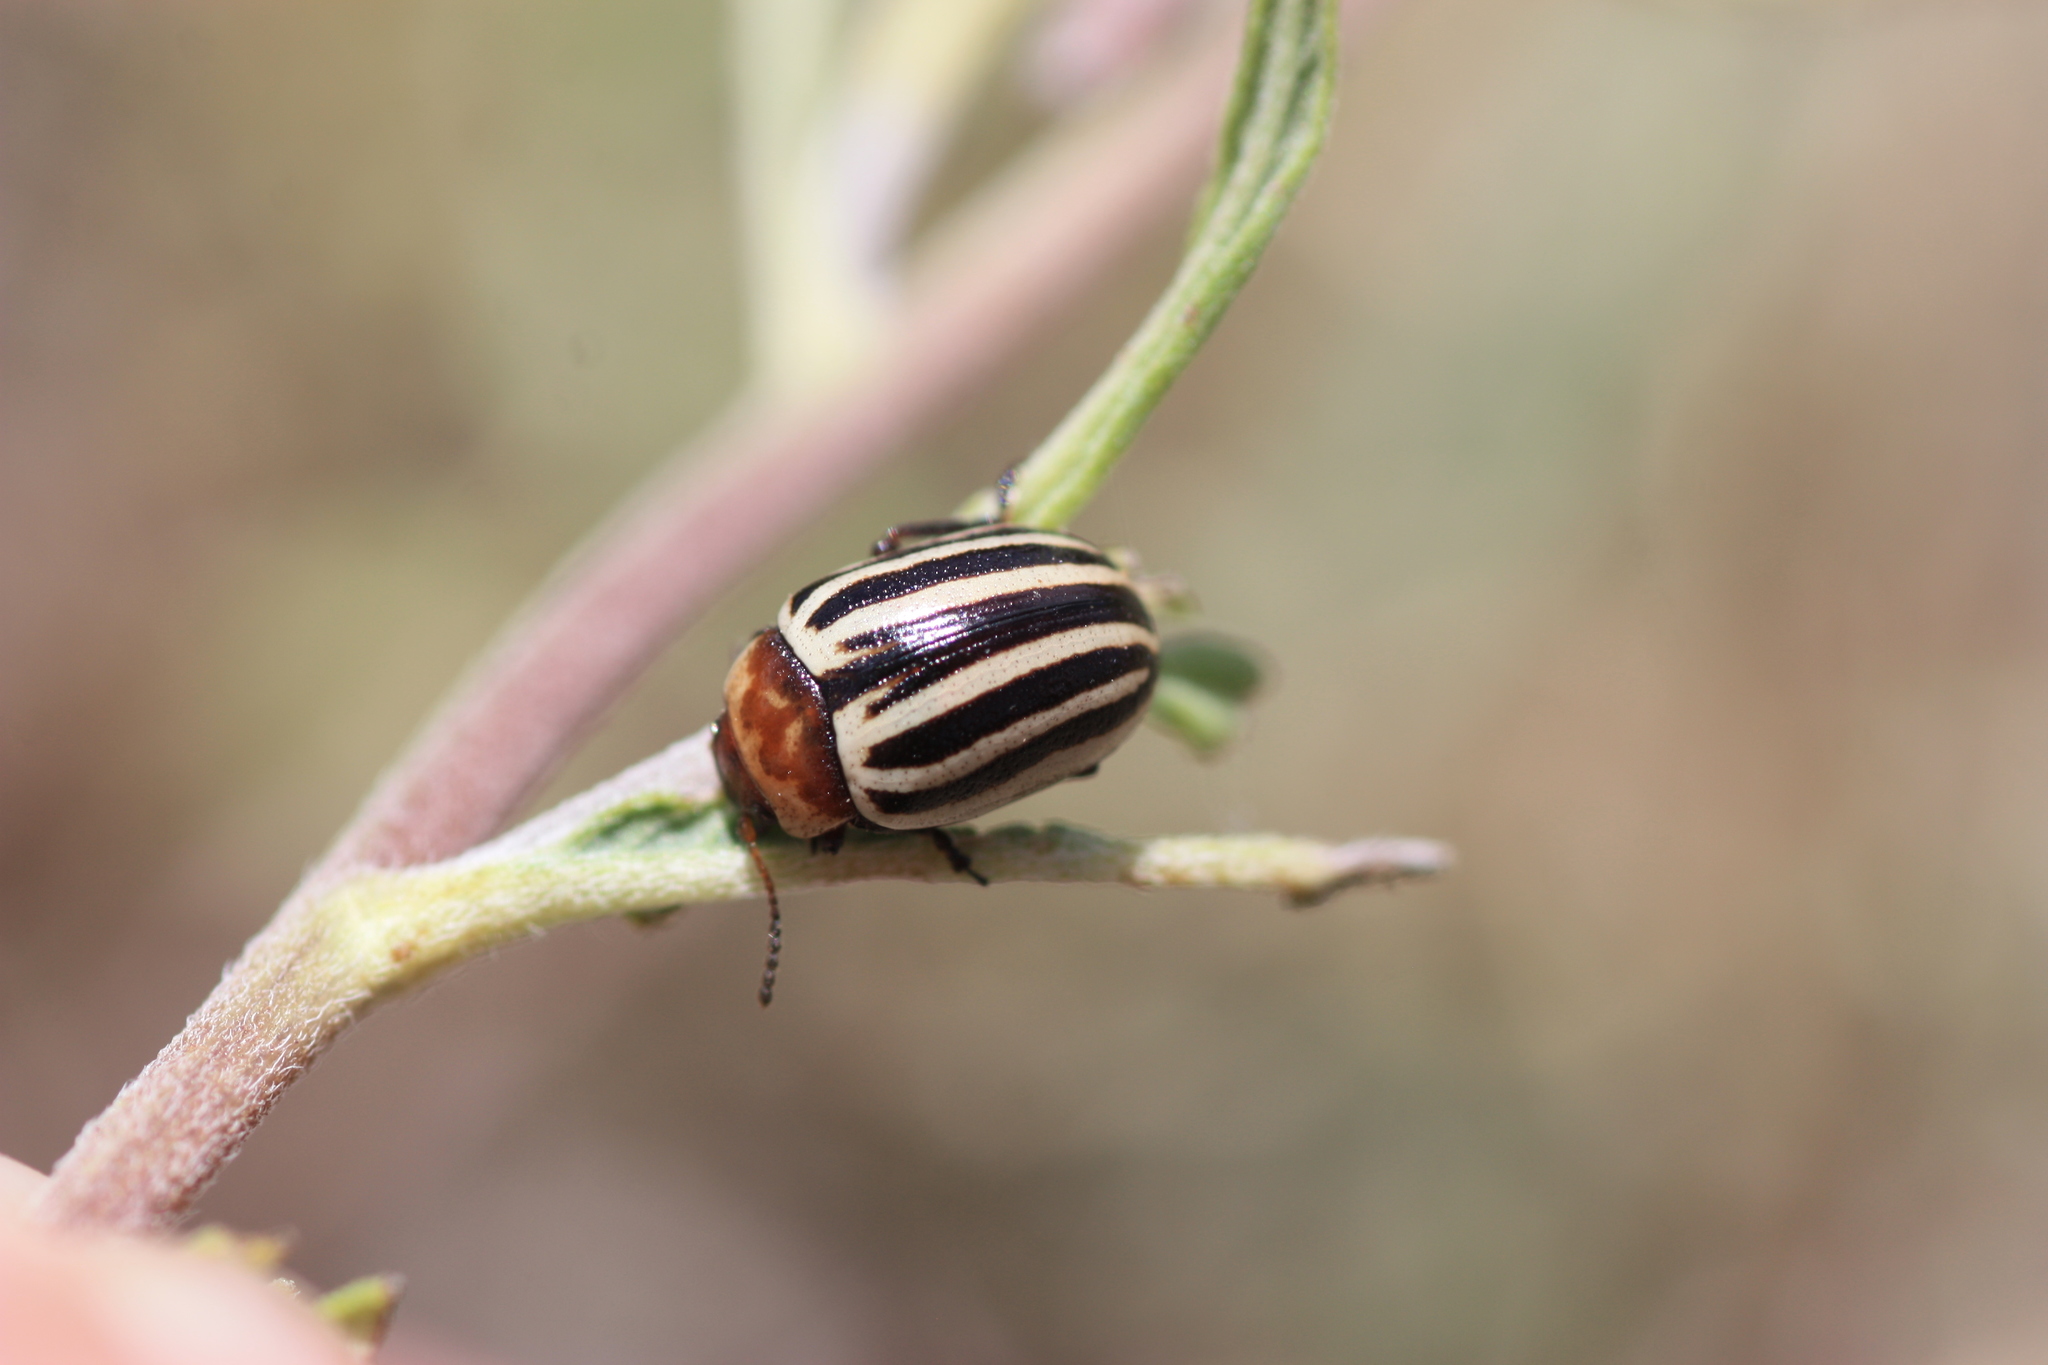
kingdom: Animalia
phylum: Arthropoda
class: Insecta
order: Coleoptera
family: Chrysomelidae
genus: Calligrapha
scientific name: Calligrapha
